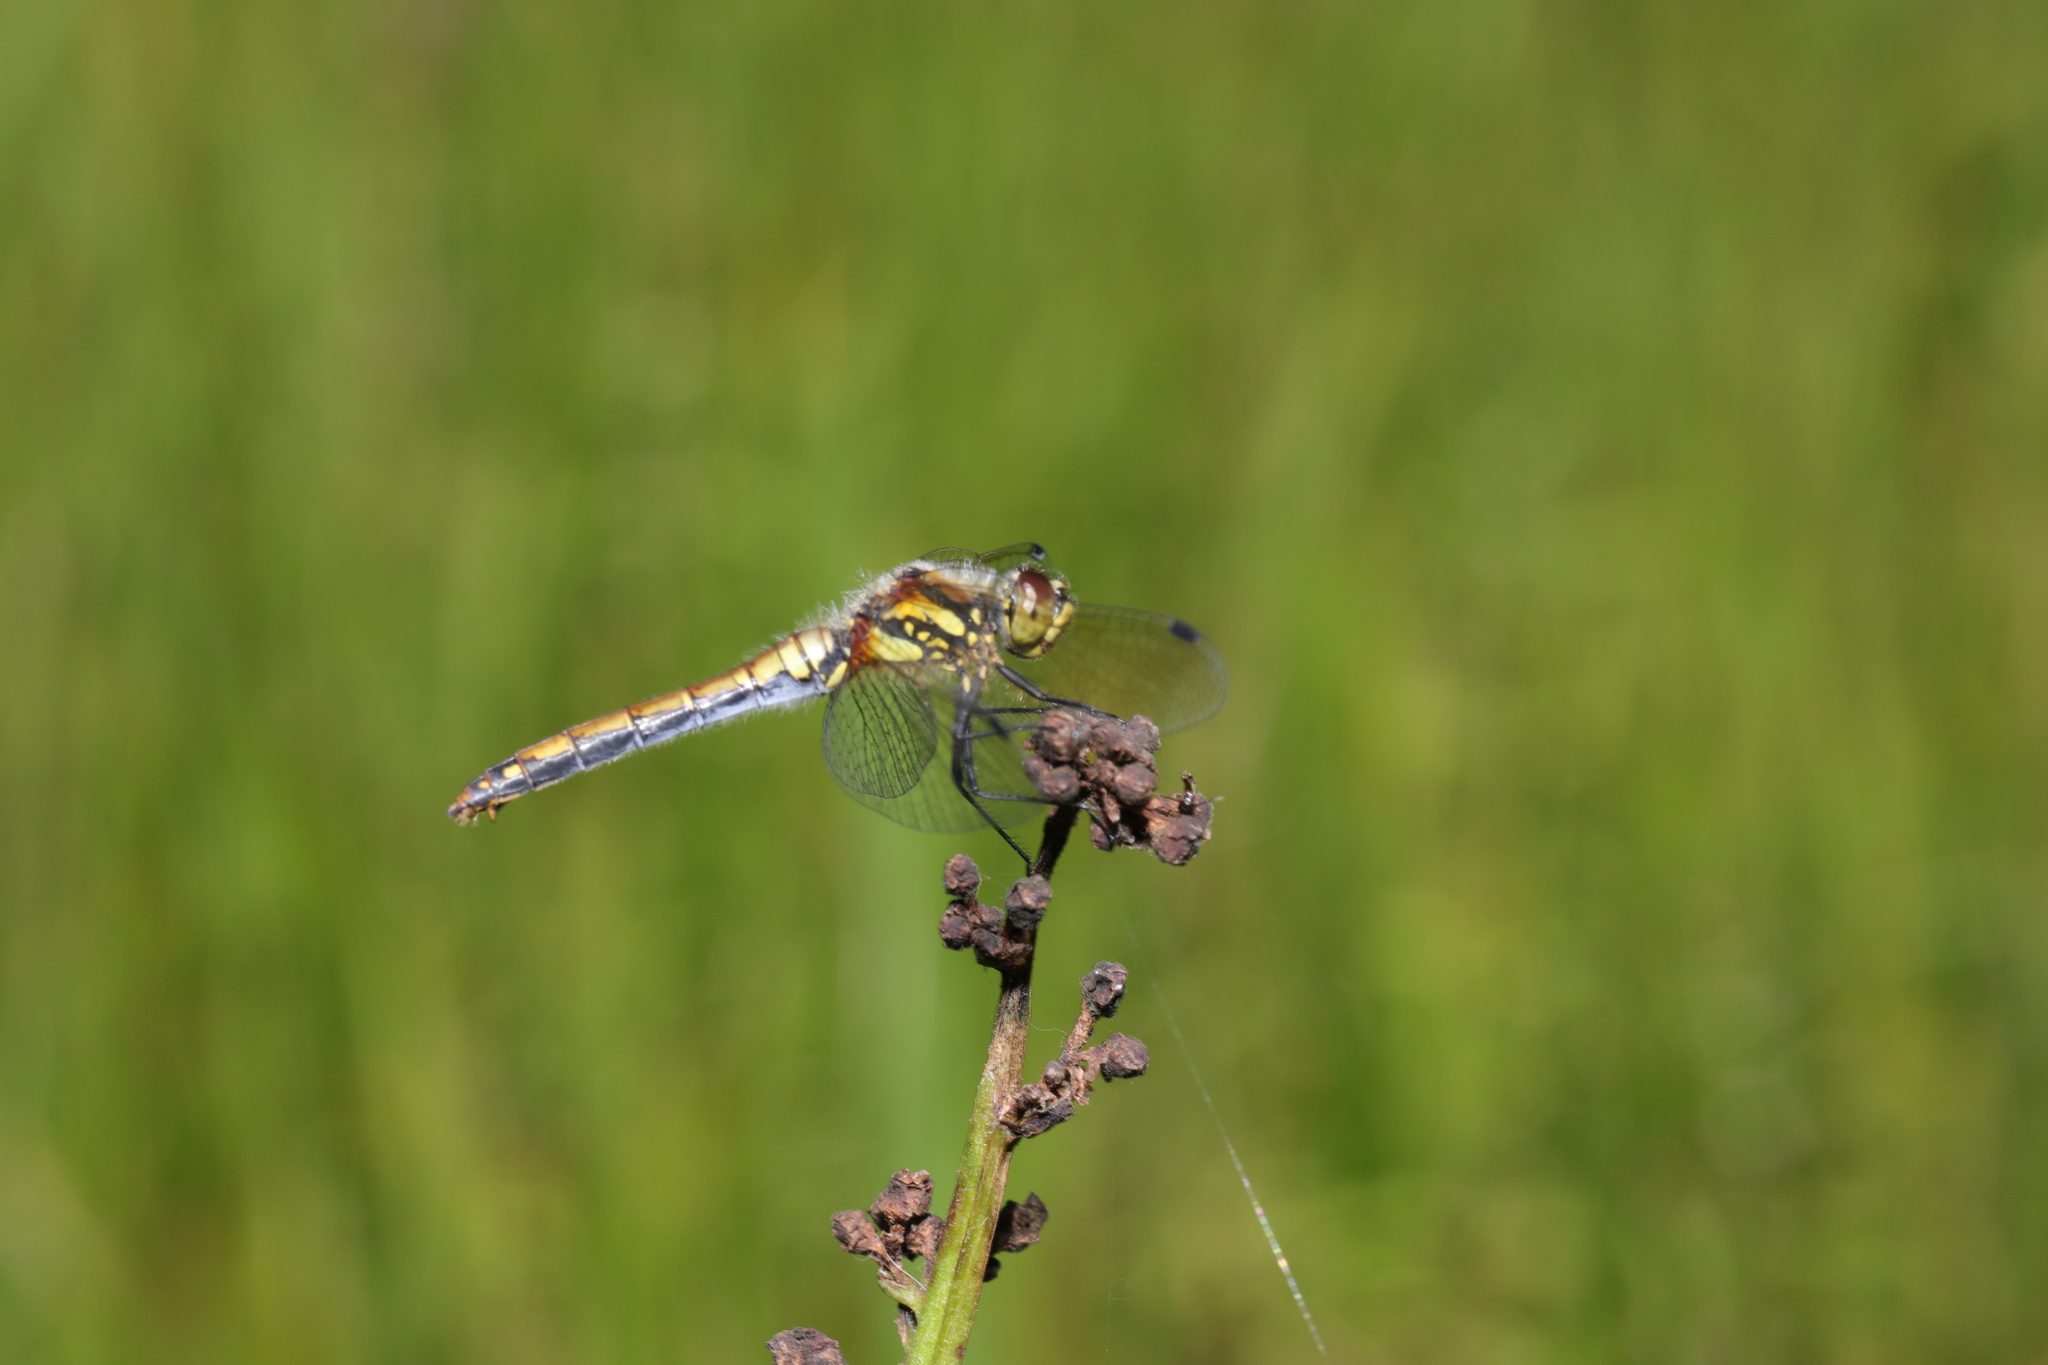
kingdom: Animalia
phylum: Arthropoda
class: Insecta
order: Odonata
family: Libellulidae
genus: Sympetrum
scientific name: Sympetrum danae
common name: Black darter
